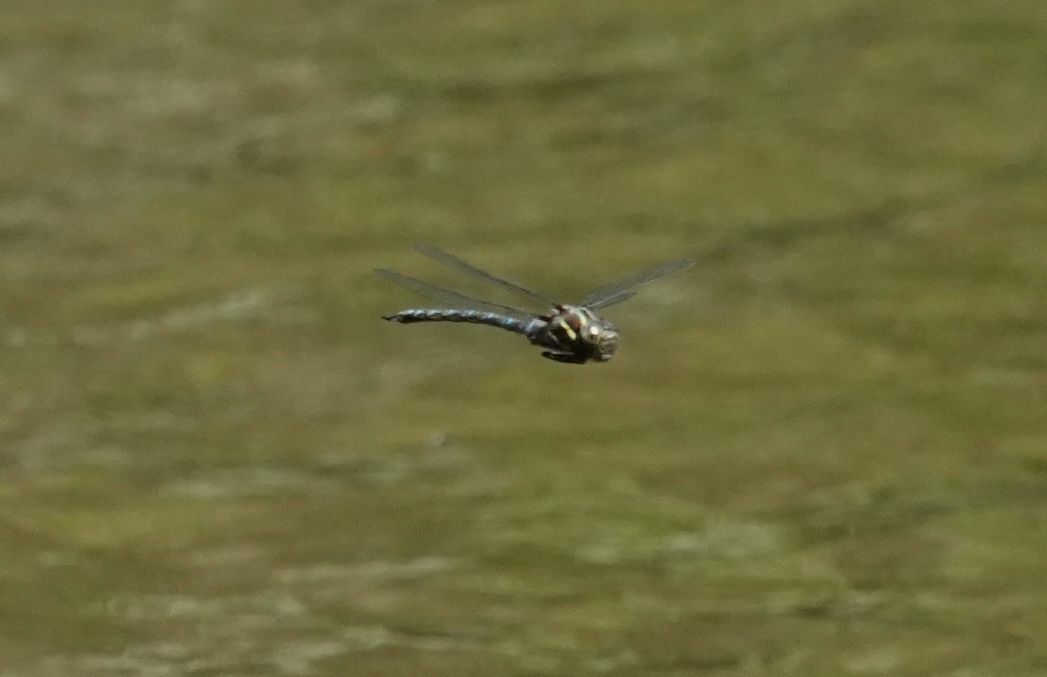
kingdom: Animalia
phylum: Arthropoda
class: Insecta
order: Odonata
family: Aeshnidae
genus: Basiaeschna
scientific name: Basiaeschna janata
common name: Springtime darner
